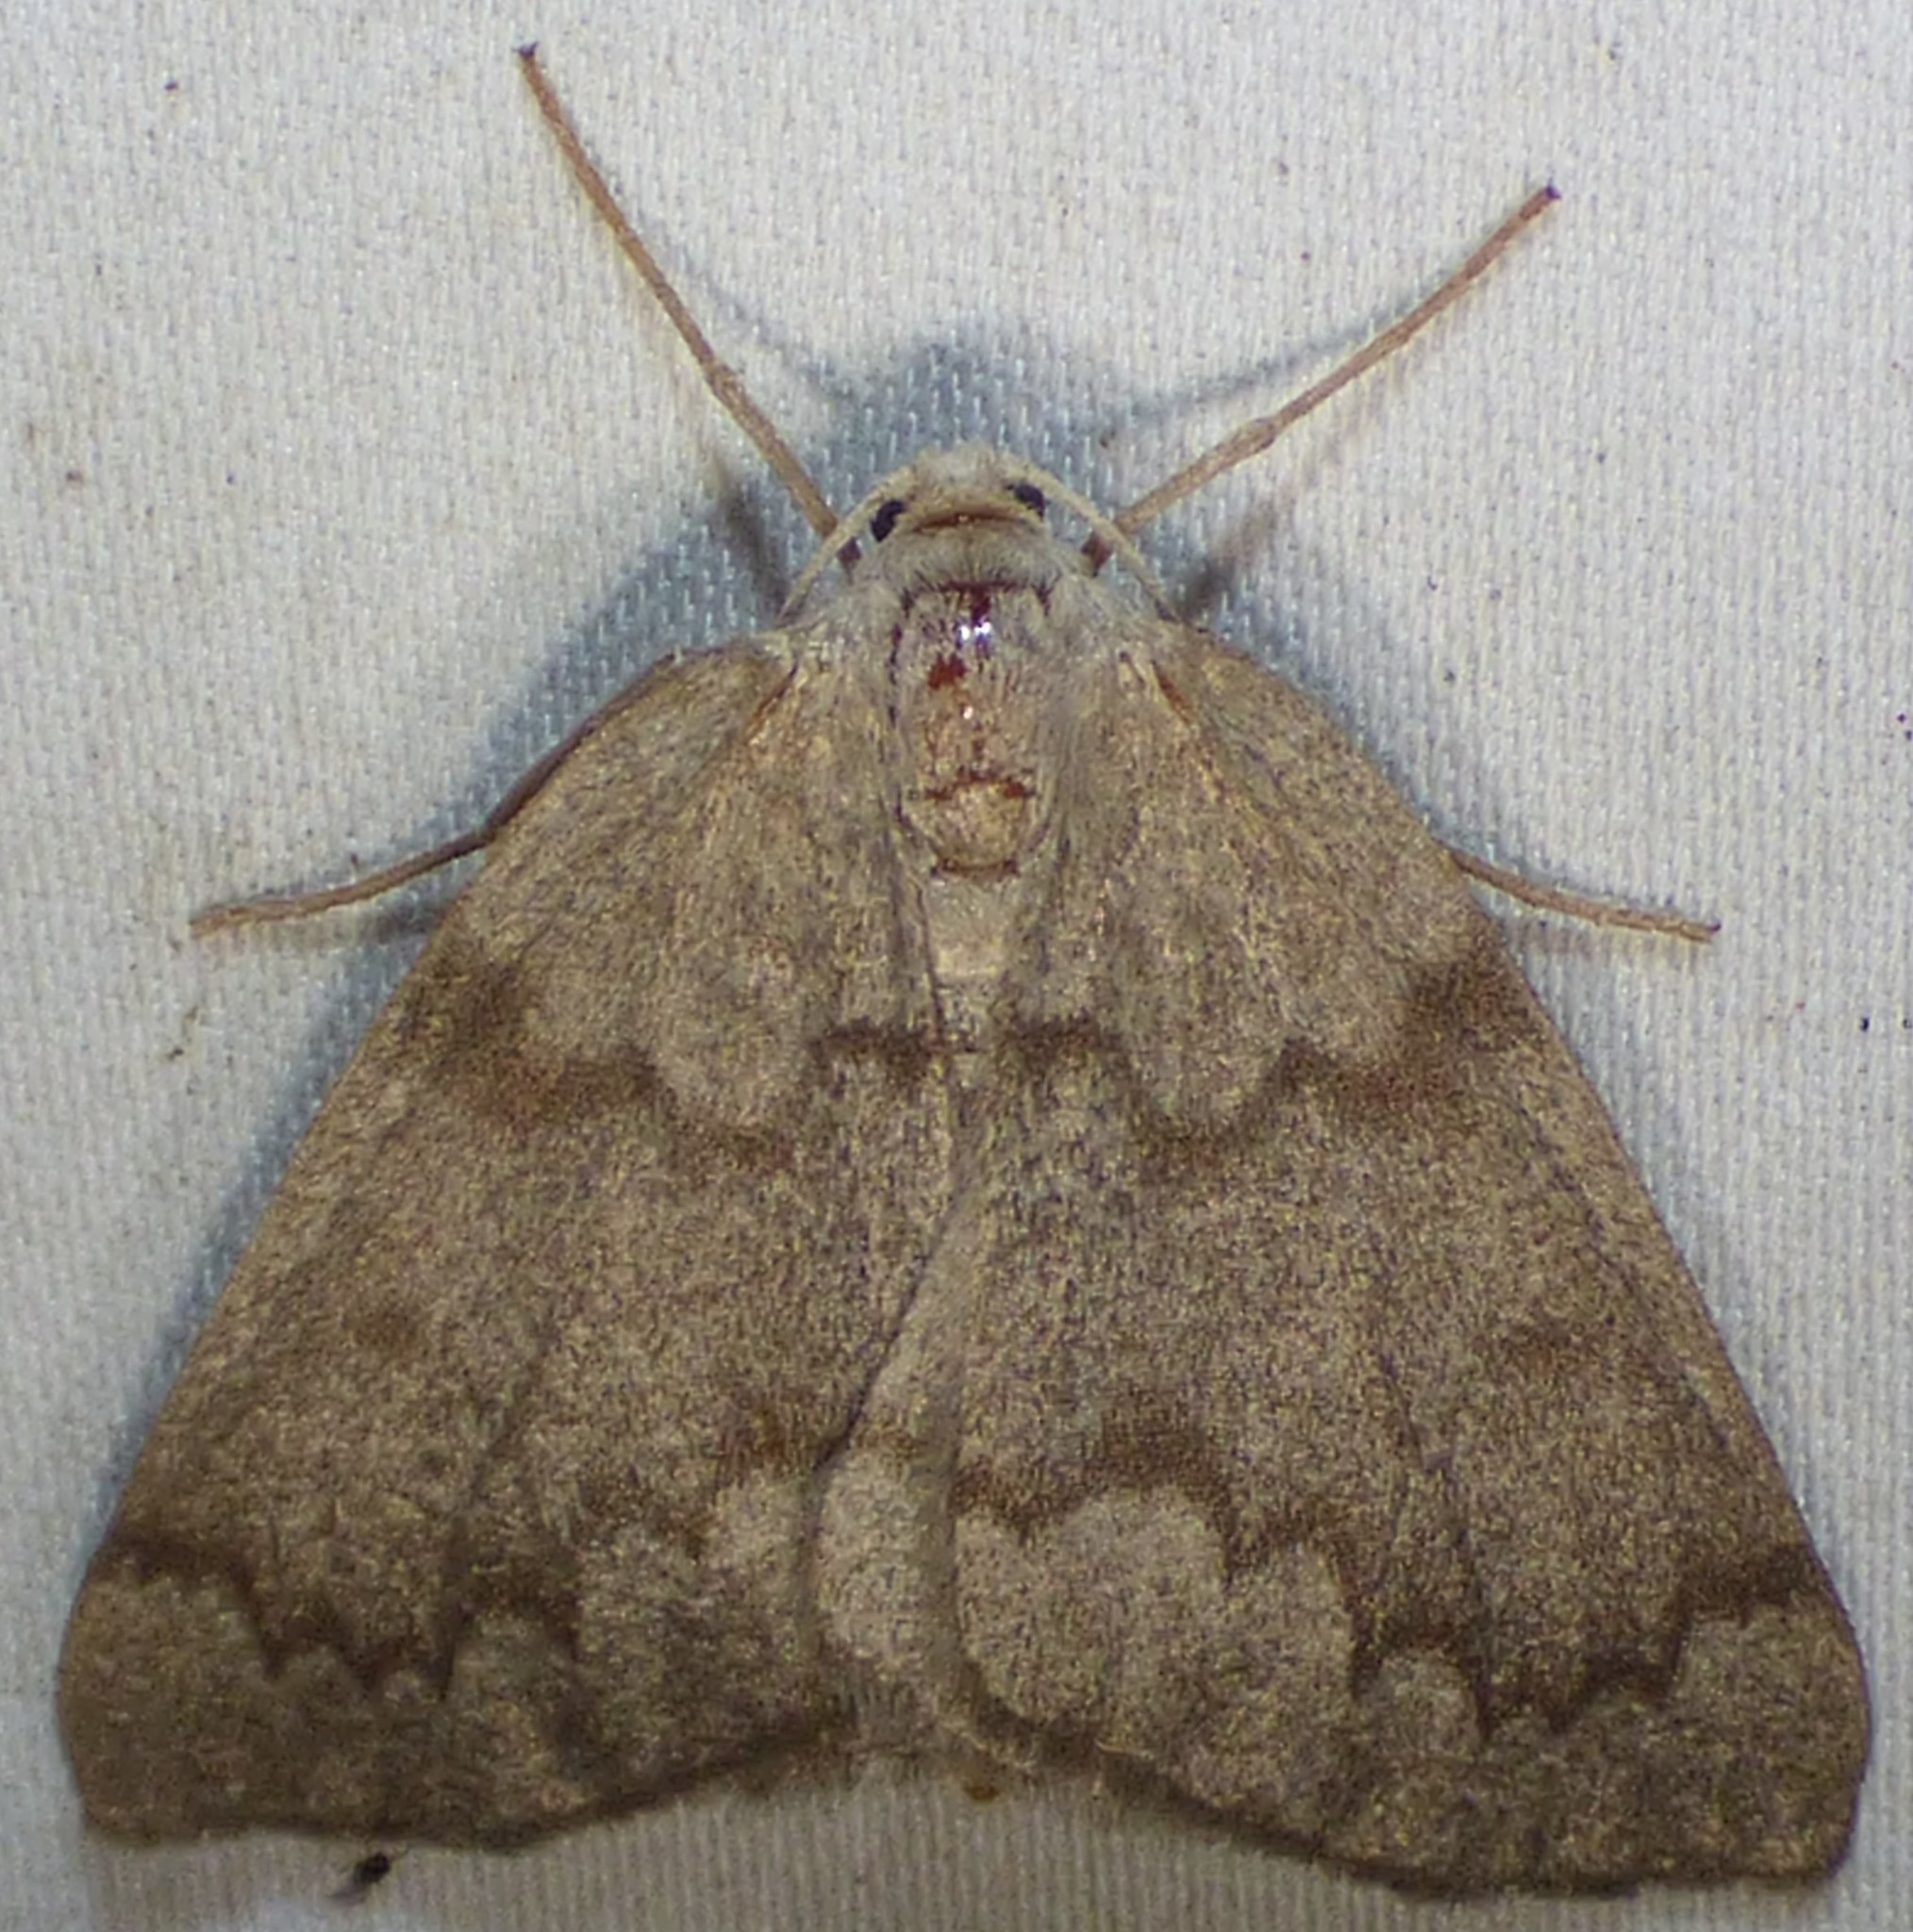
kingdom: Animalia
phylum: Arthropoda
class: Insecta
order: Lepidoptera
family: Geometridae
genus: Nepytia
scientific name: Nepytia semiclusaria
